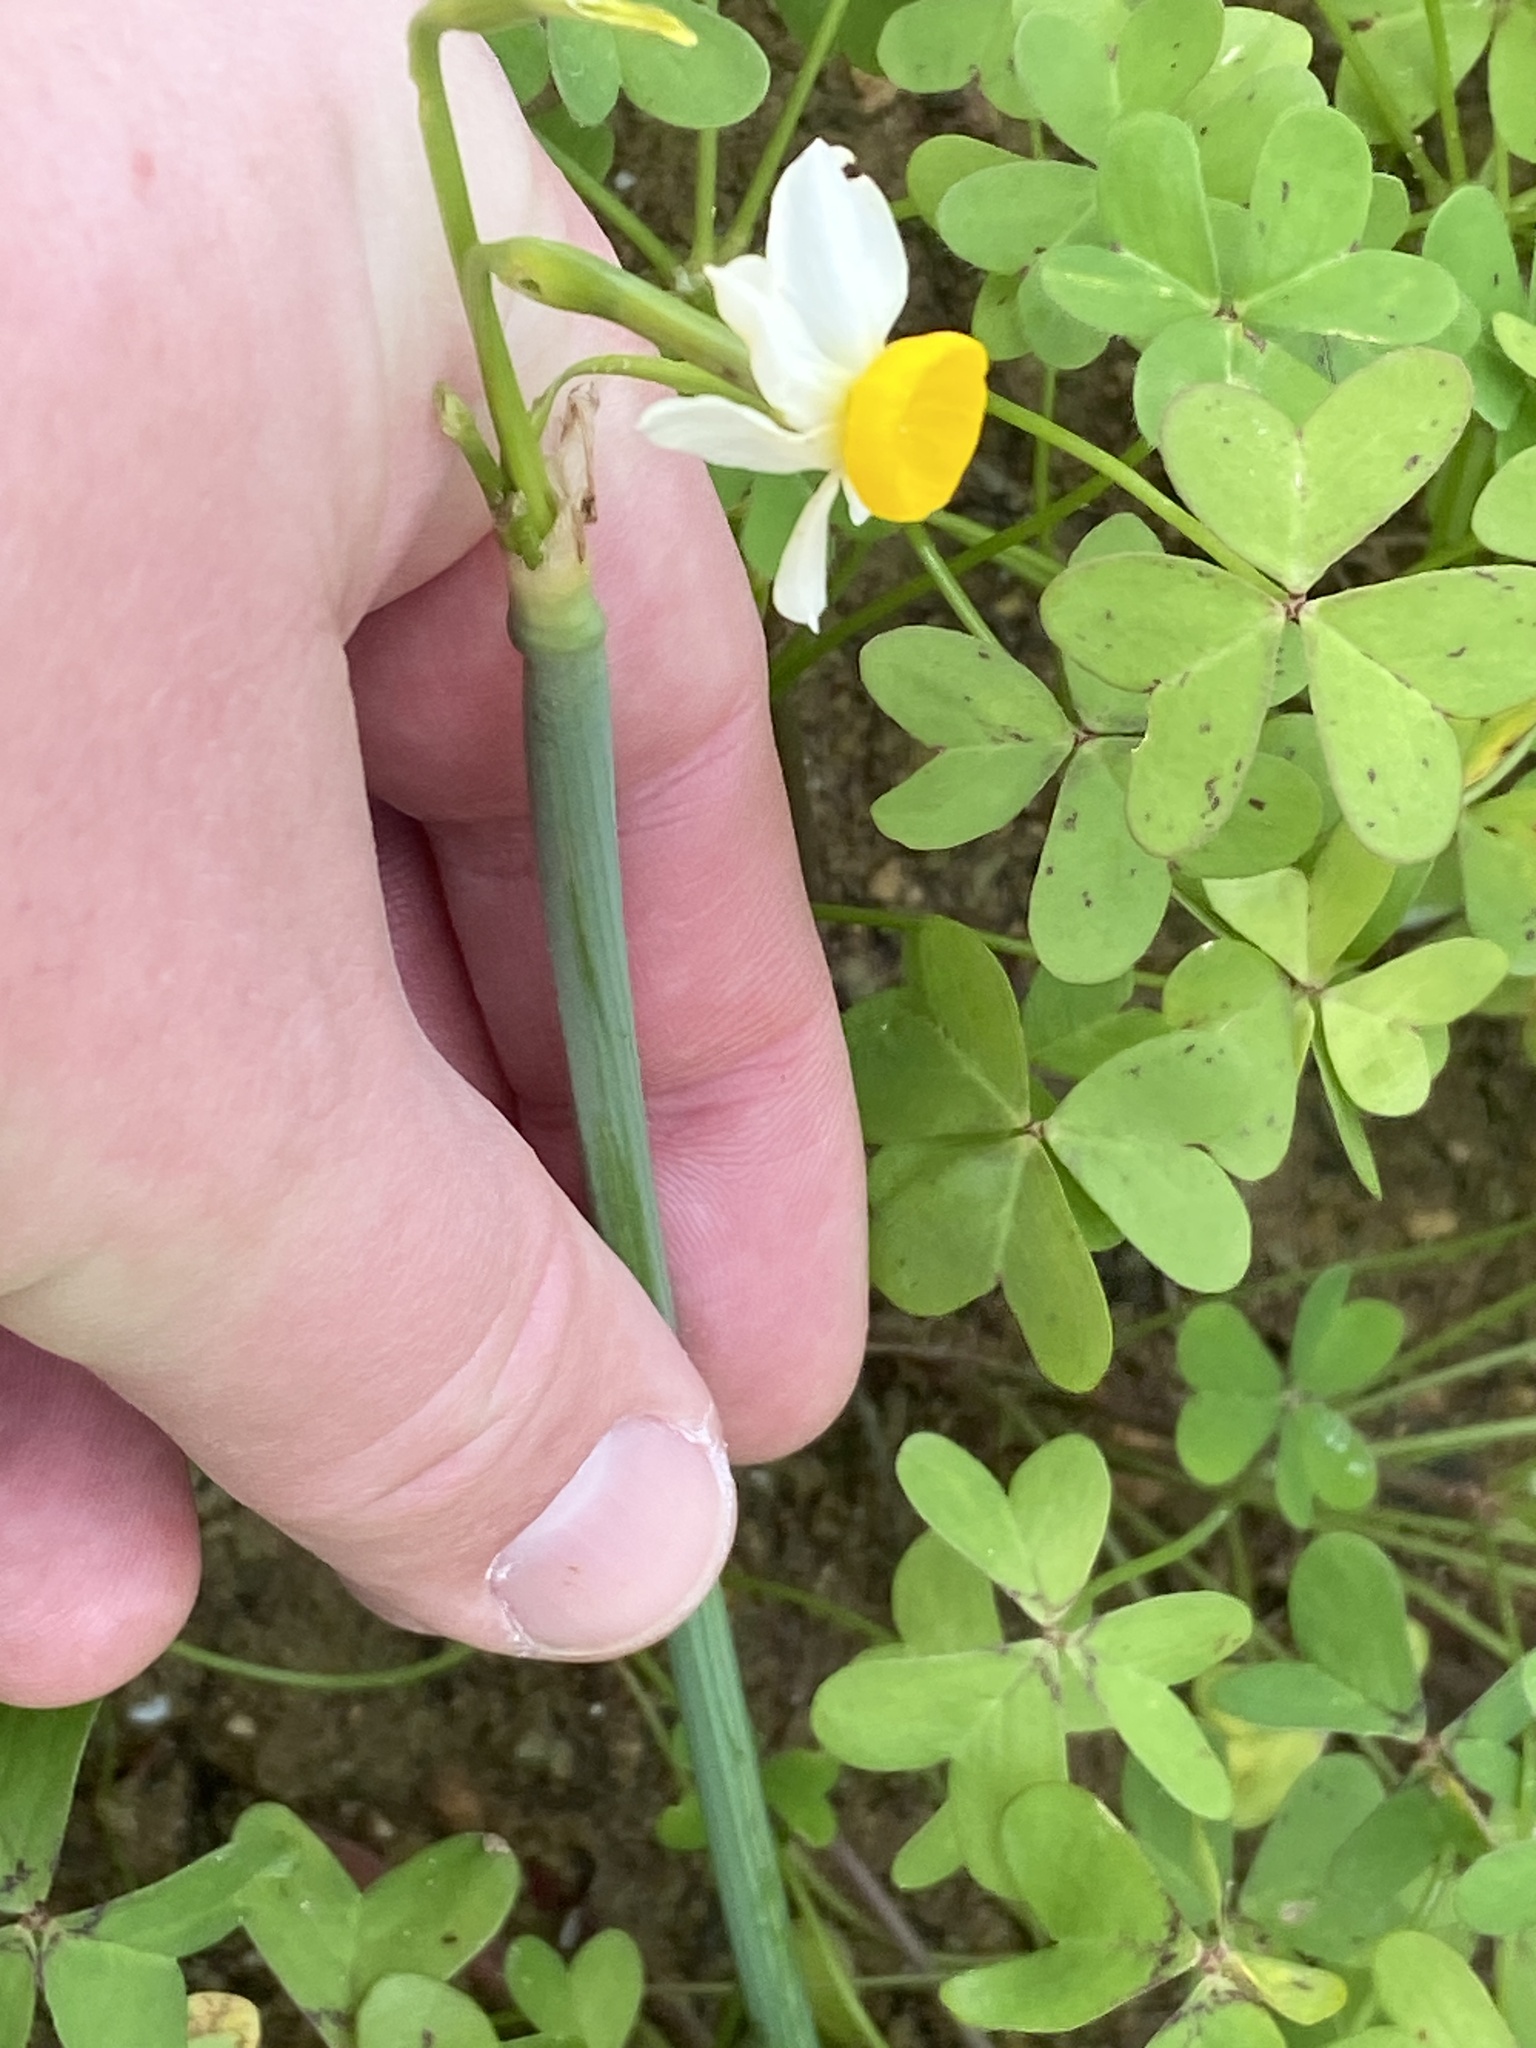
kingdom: Plantae
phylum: Tracheophyta
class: Liliopsida
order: Asparagales
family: Amaryllidaceae
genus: Narcissus
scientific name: Narcissus tazetta
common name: Bunch-flowered daffodil
